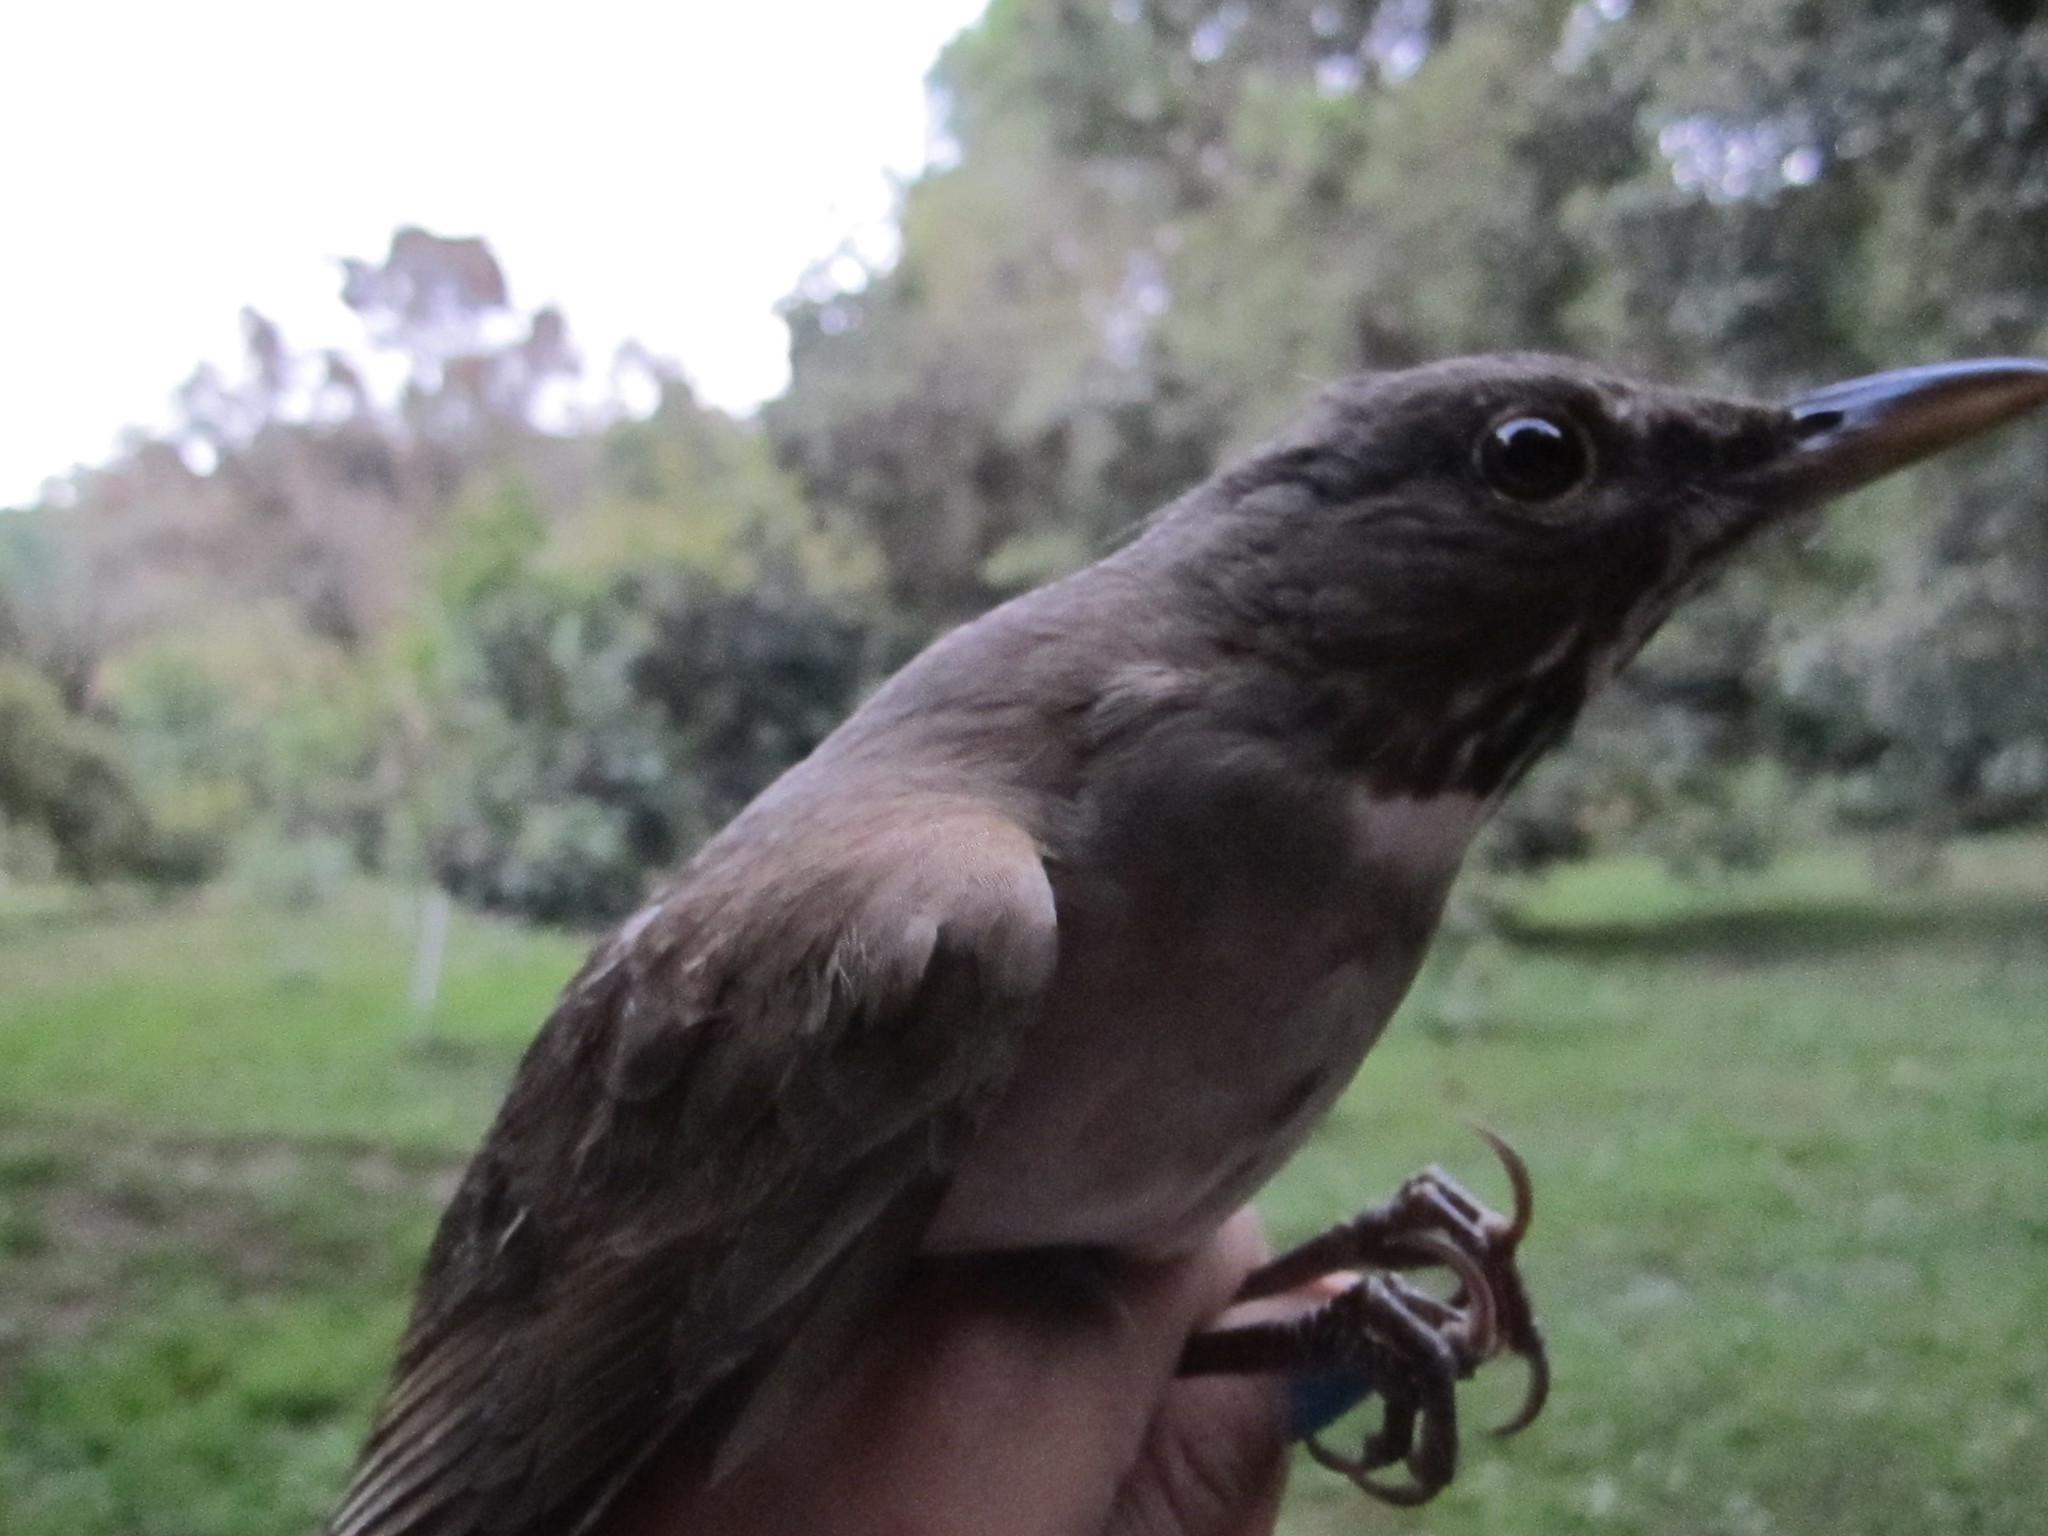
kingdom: Animalia
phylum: Chordata
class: Aves
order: Passeriformes
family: Turdidae
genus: Turdus
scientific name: Turdus assimilis
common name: White-throated thrush
